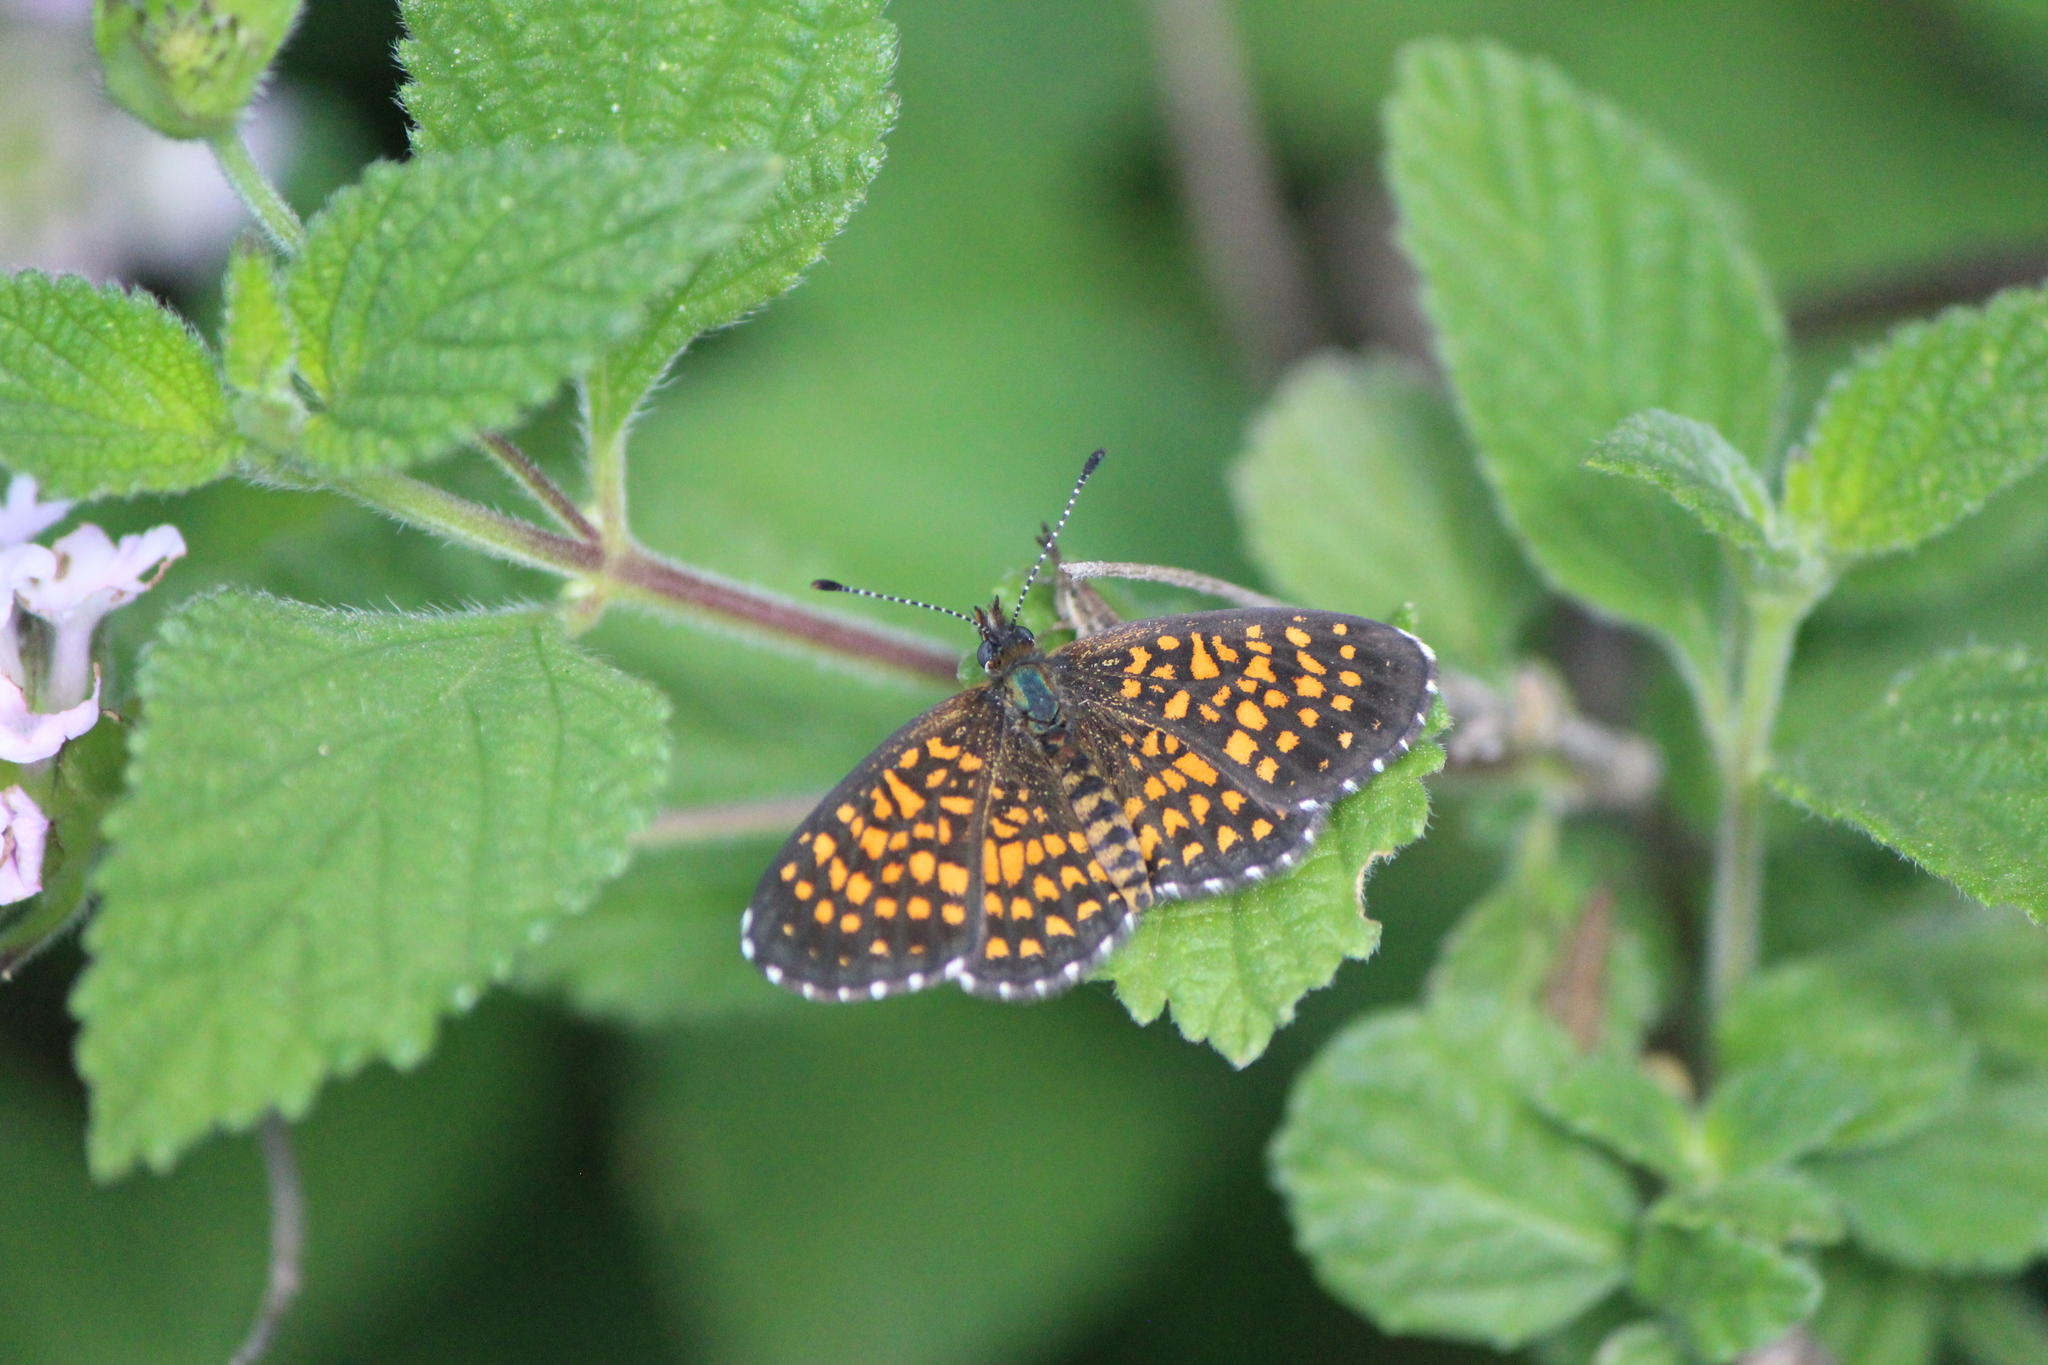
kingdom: Animalia
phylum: Arthropoda
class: Insecta
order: Lepidoptera
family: Nymphalidae
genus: Texola
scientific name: Texola elada
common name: Elada checkerspot
